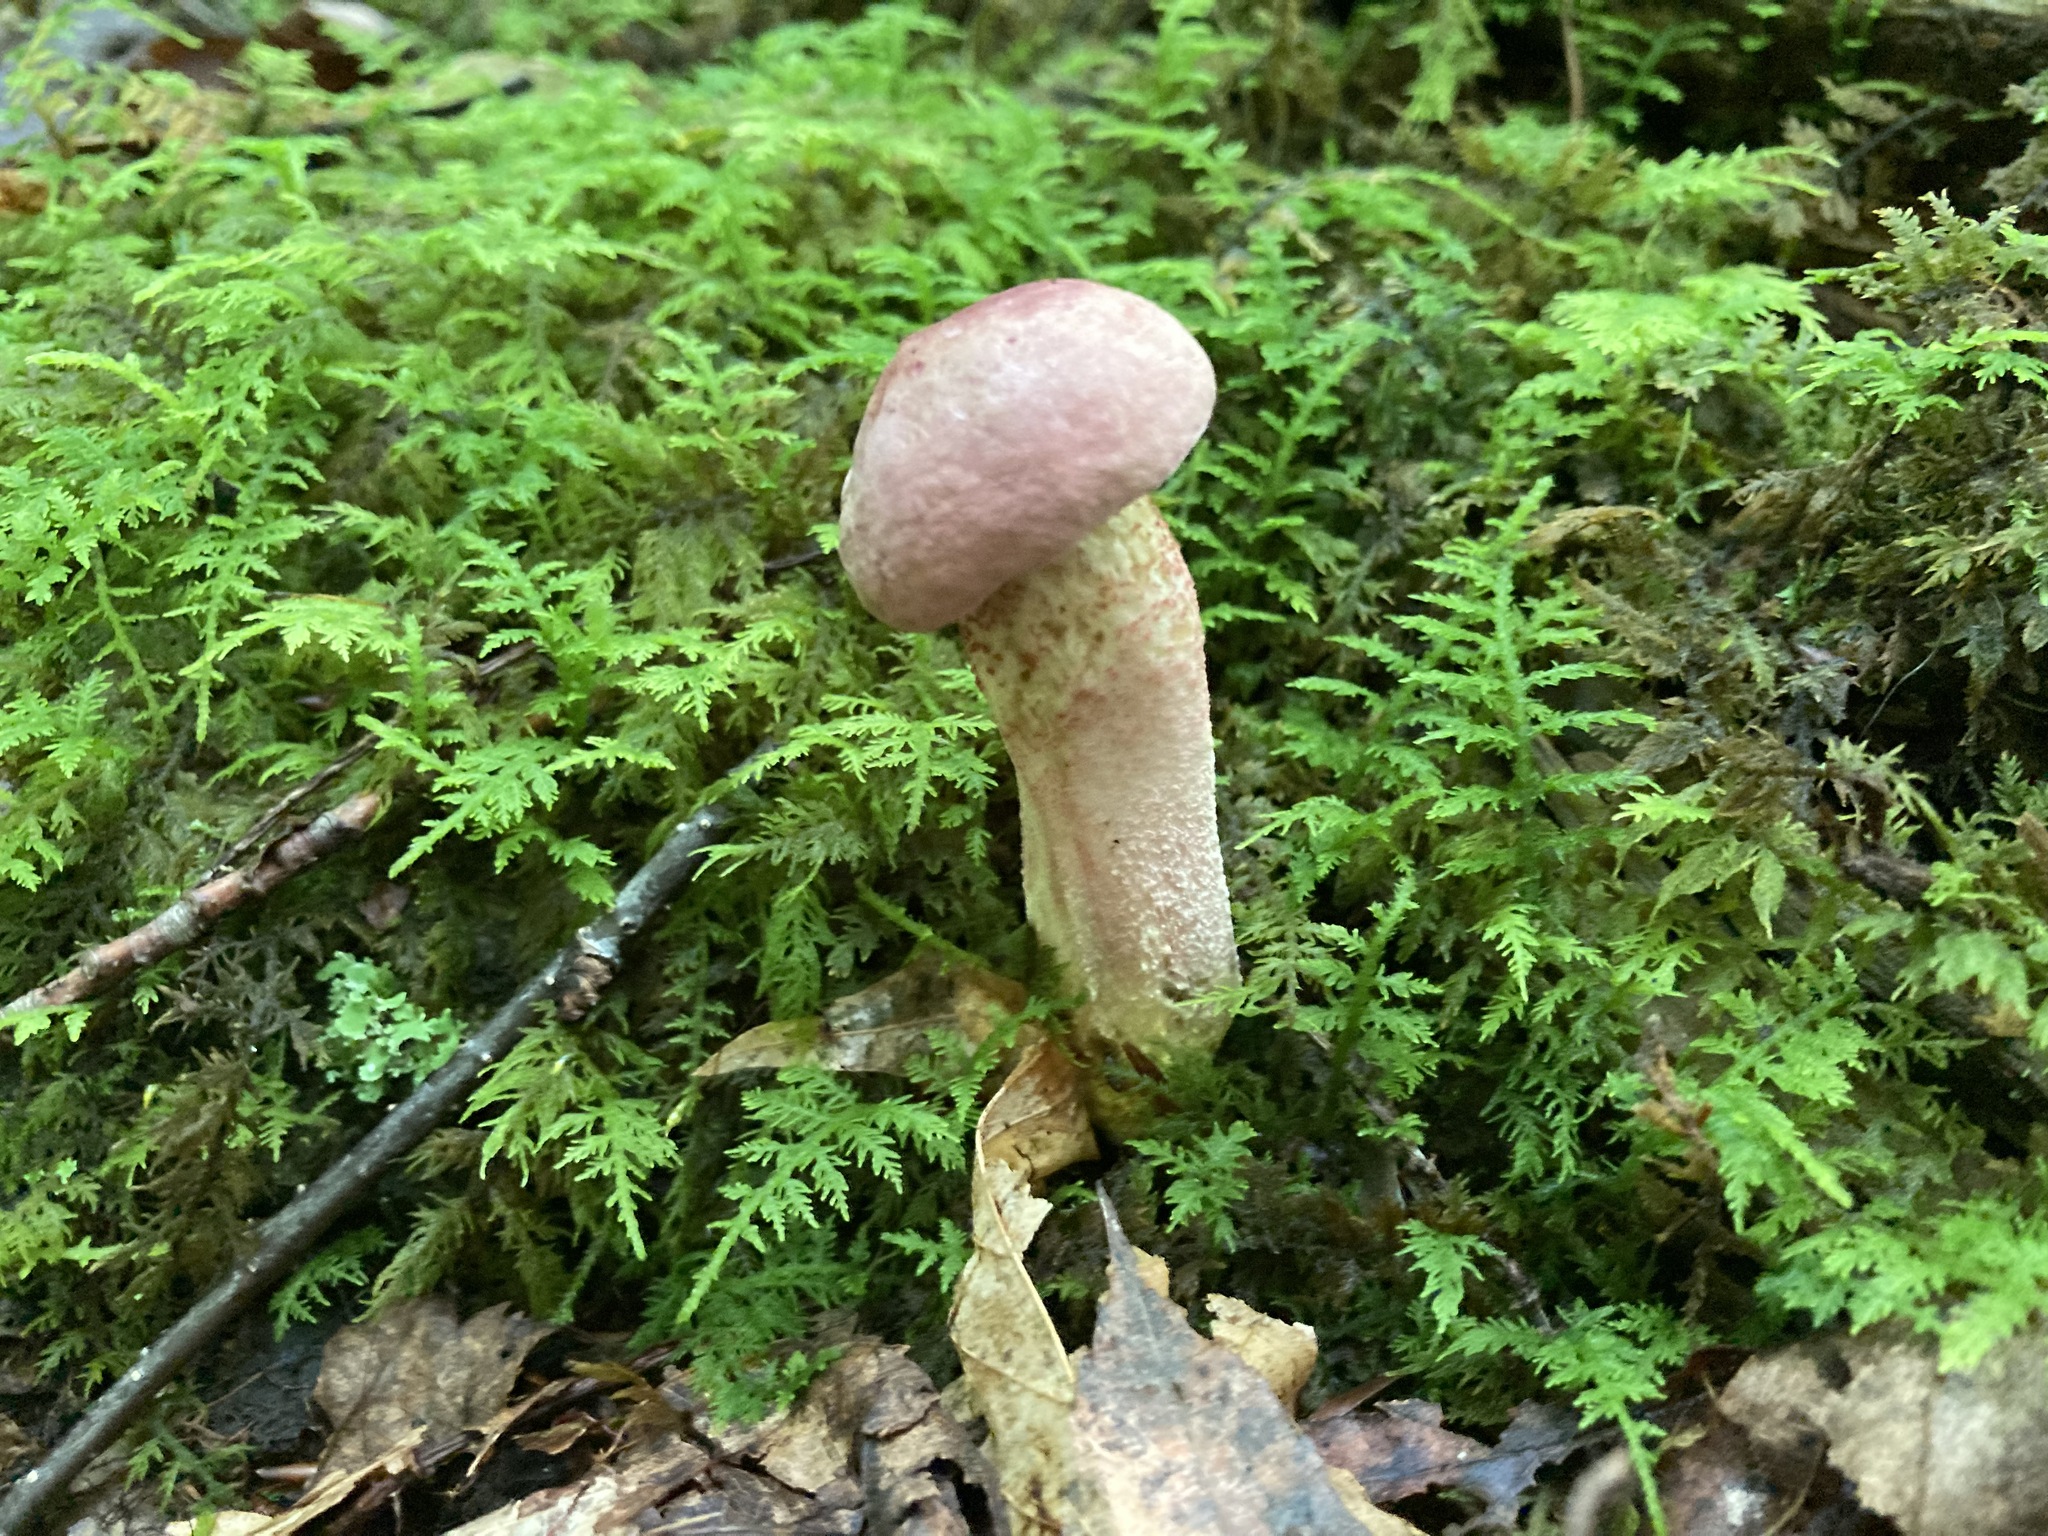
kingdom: Fungi
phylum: Basidiomycota
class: Agaricomycetes
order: Boletales
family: Boletaceae
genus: Harrya
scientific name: Harrya chromipes
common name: Chrome-footed bolete
